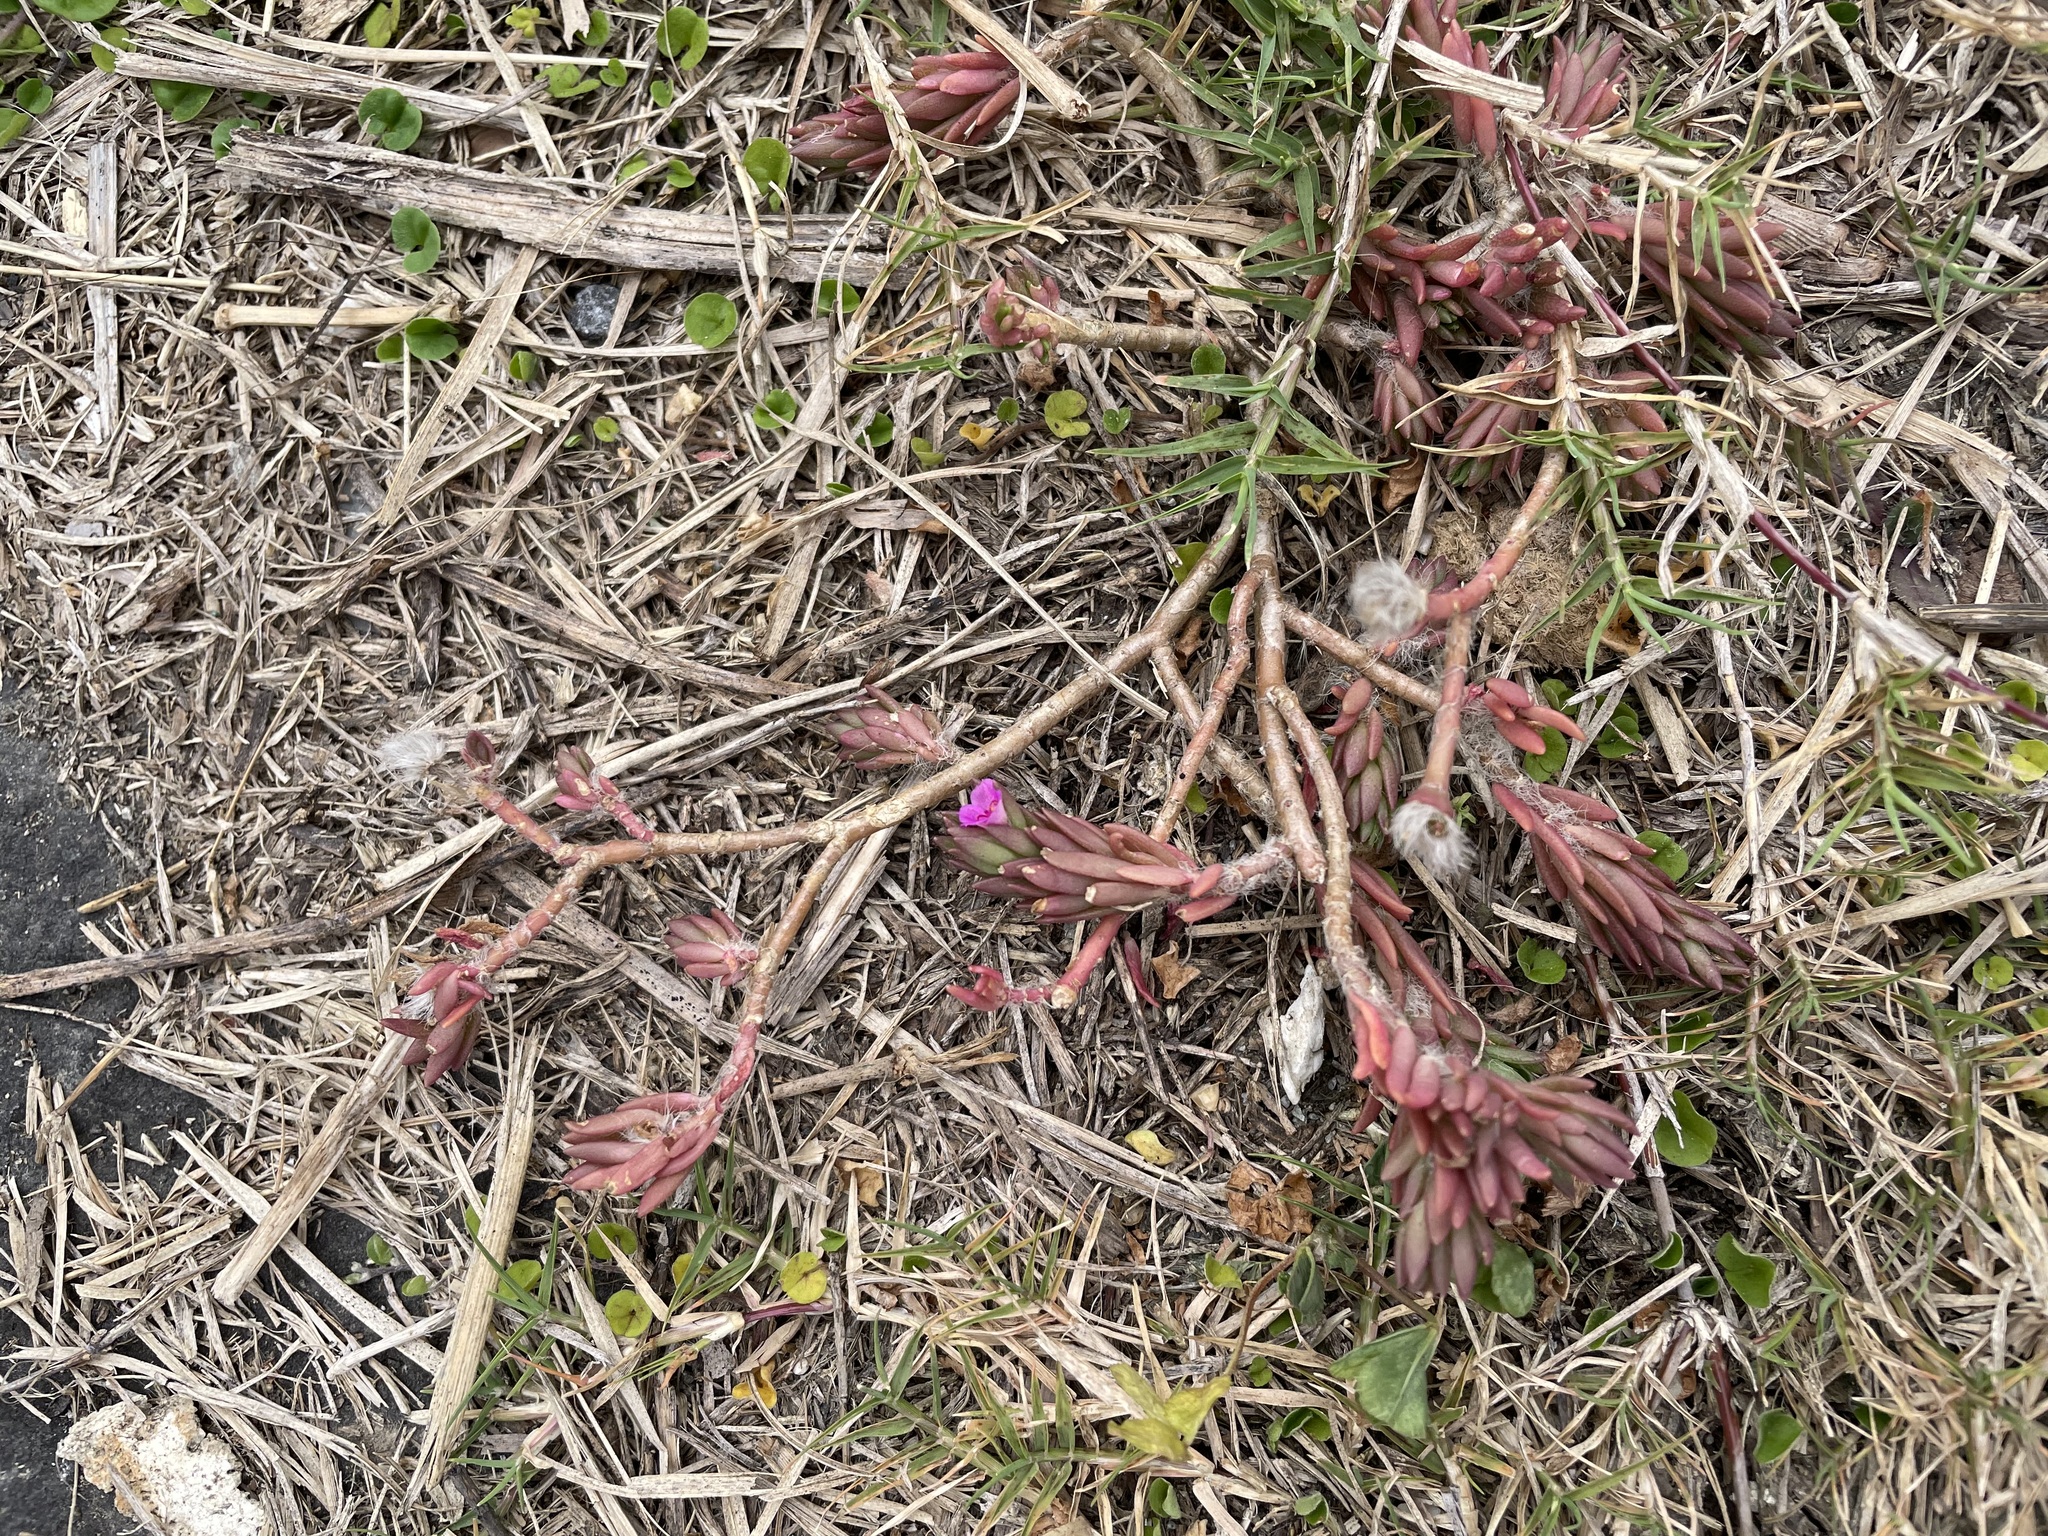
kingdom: Plantae
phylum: Tracheophyta
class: Magnoliopsida
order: Caryophyllales
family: Portulacaceae
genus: Portulaca
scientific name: Portulaca pilosa
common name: Kiss me quick
